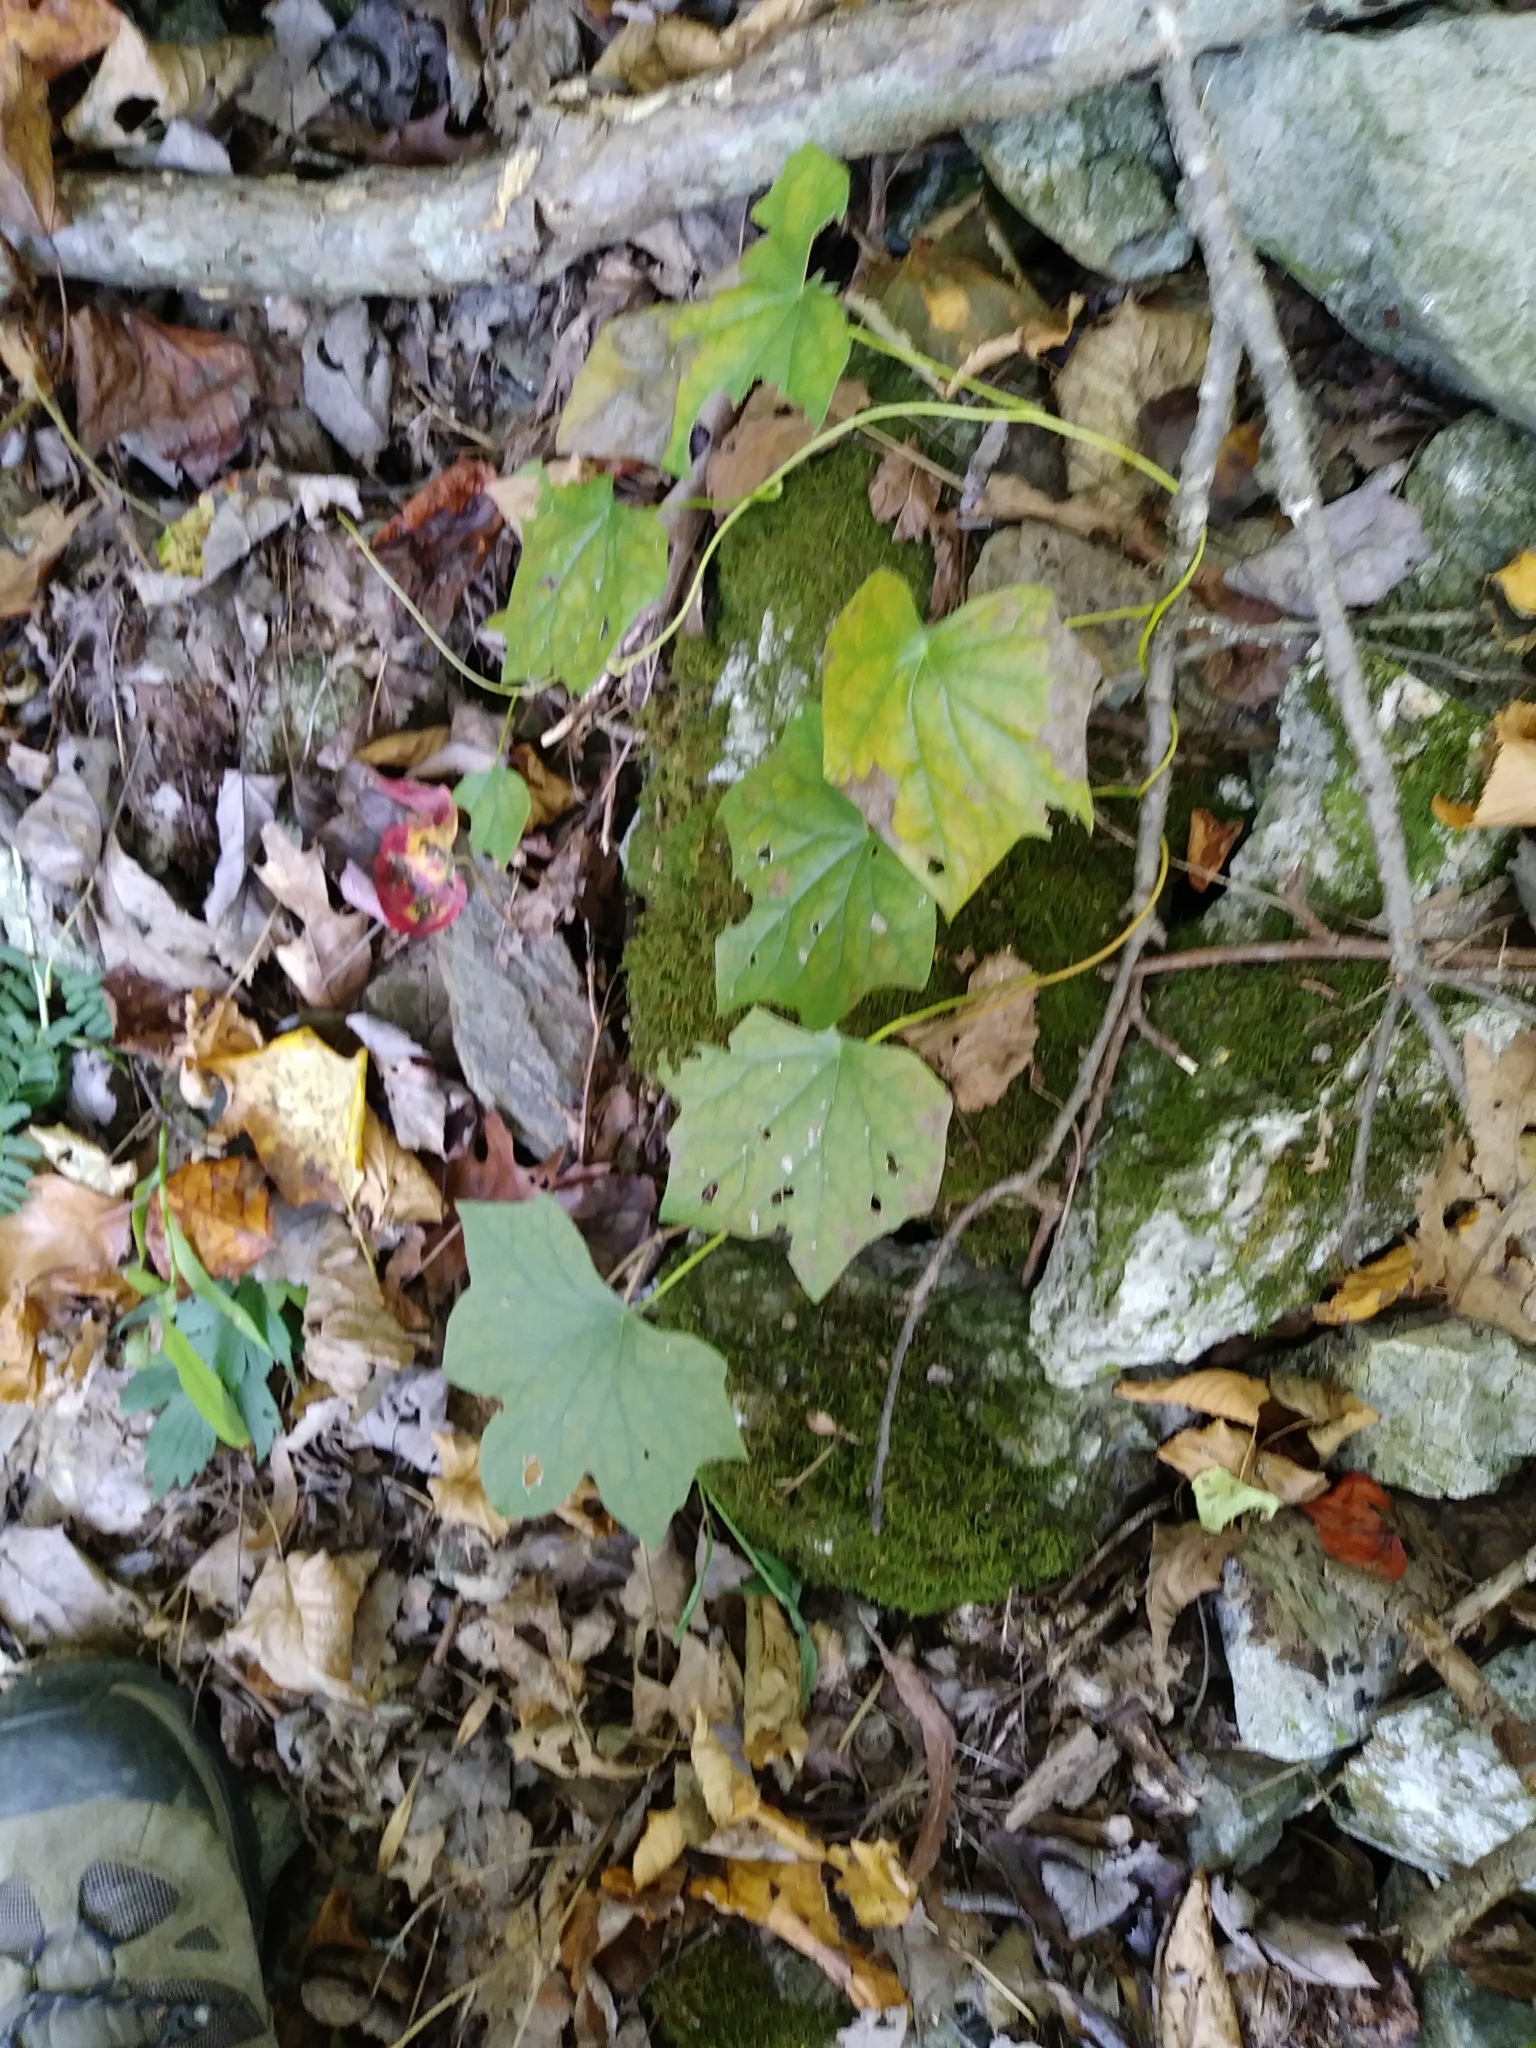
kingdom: Plantae
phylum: Tracheophyta
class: Magnoliopsida
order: Ranunculales
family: Menispermaceae
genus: Menispermum
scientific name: Menispermum canadense
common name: Moonseed
